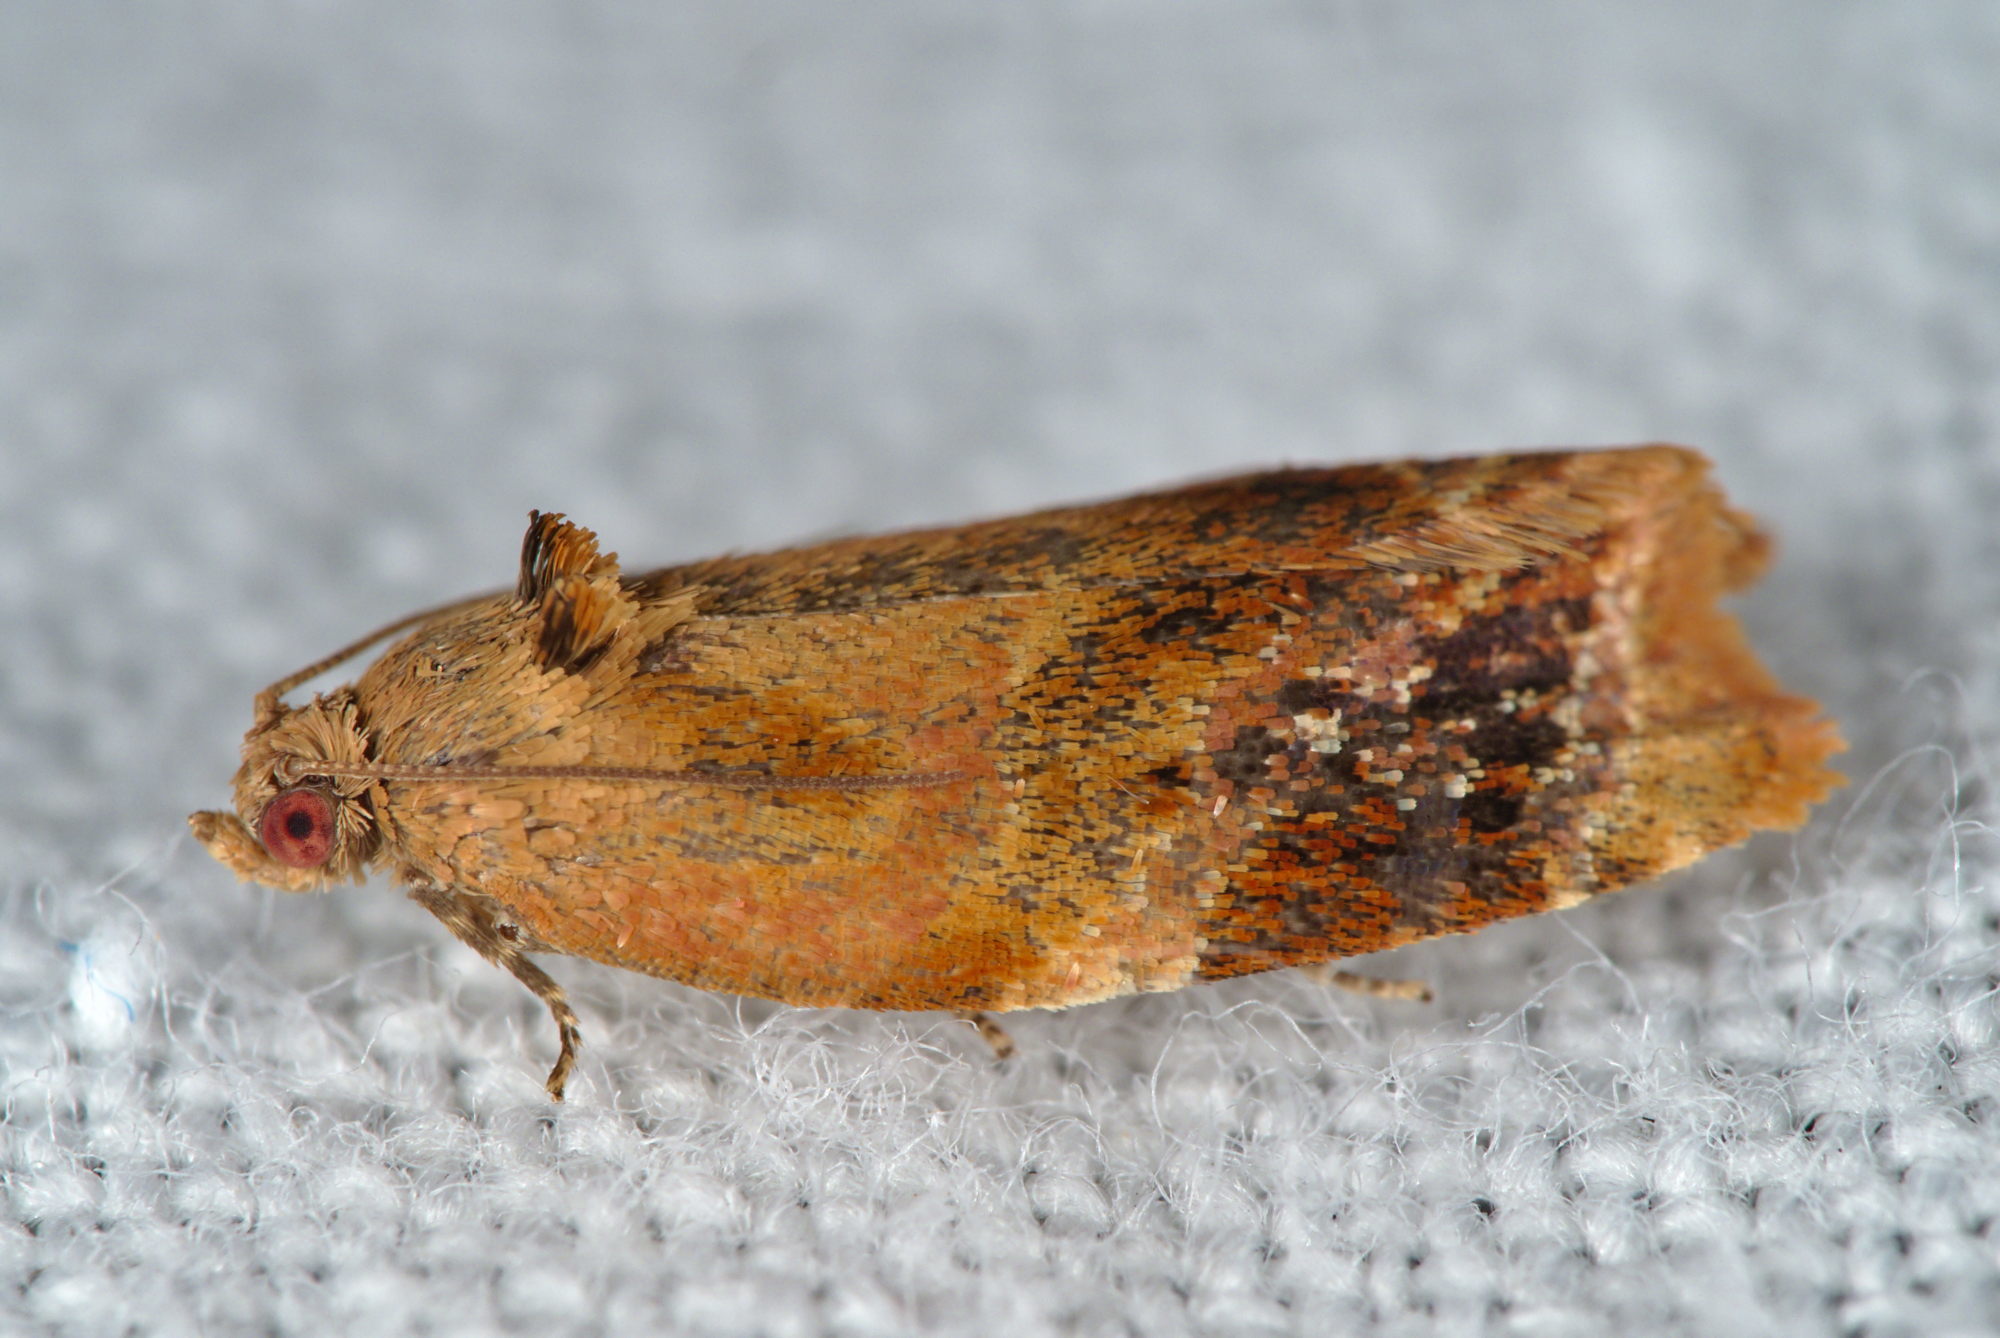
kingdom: Animalia
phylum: Arthropoda
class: Insecta
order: Lepidoptera
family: Tortricidae
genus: Ditula
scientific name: Ditula angustiorana
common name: Red-barred tortrix
